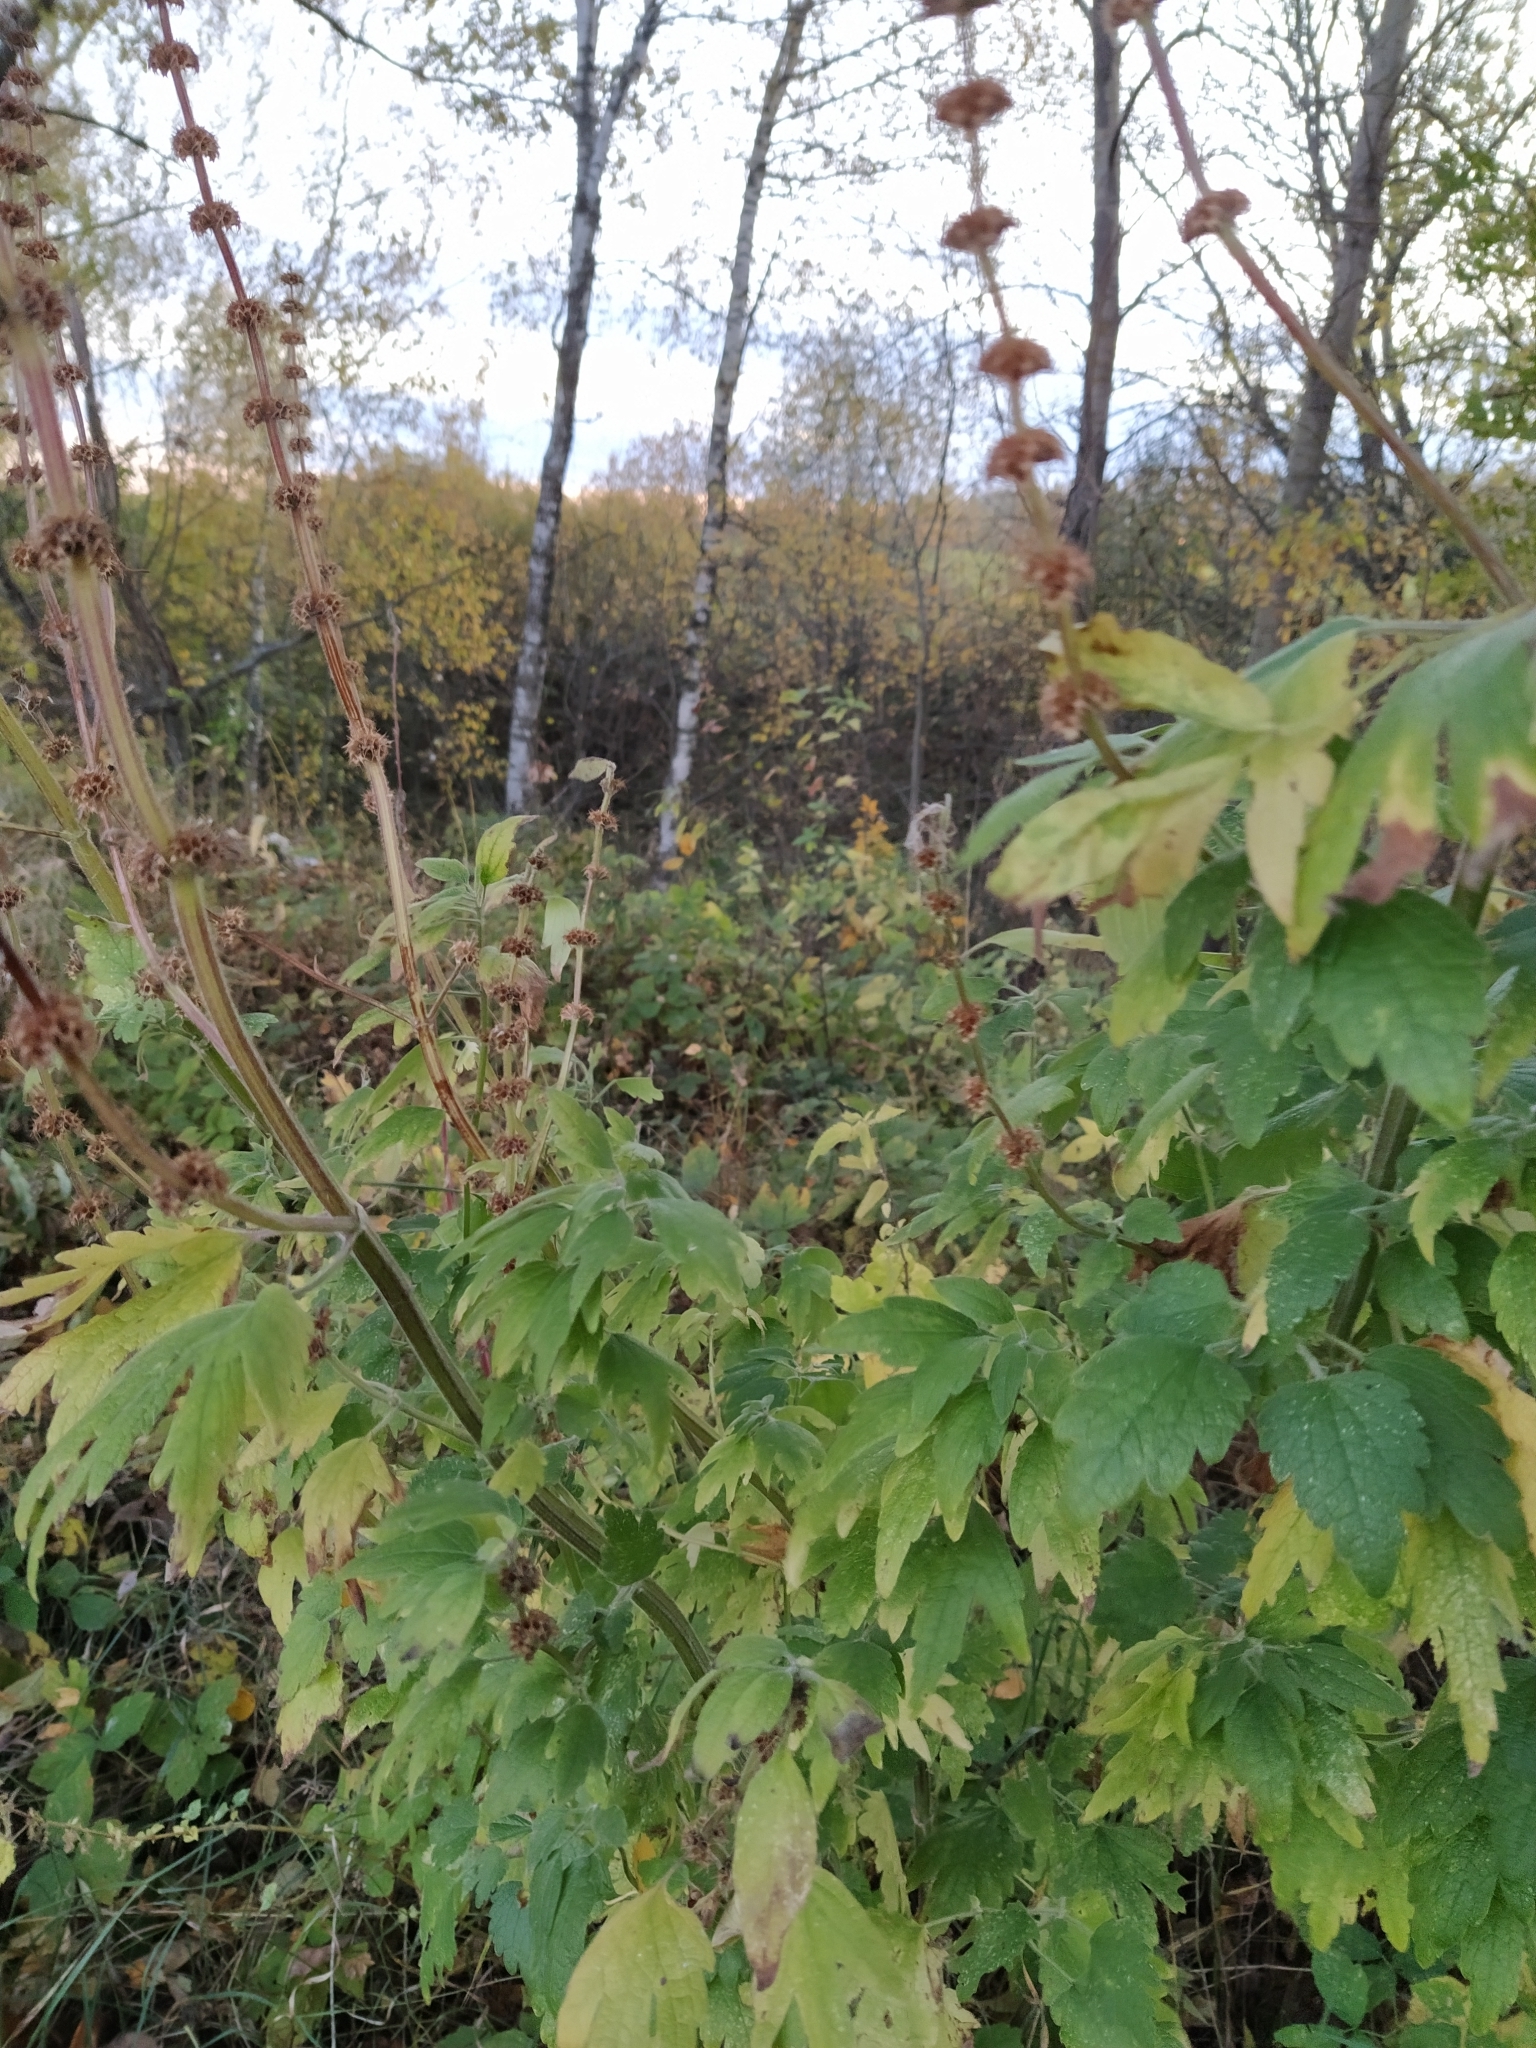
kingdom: Plantae
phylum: Tracheophyta
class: Magnoliopsida
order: Lamiales
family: Lamiaceae
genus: Leonurus
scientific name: Leonurus quinquelobatus
